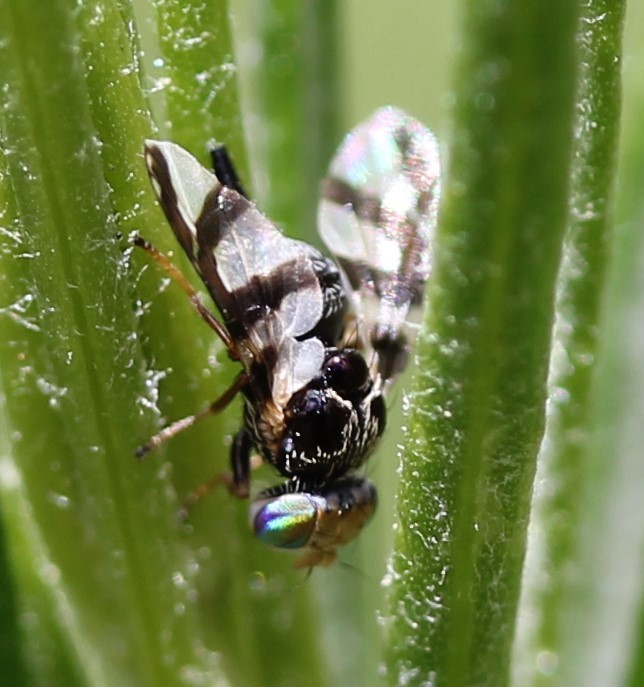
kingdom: Animalia
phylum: Arthropoda
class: Insecta
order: Diptera
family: Tephritidae
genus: Procecidochares
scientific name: Procecidochares
